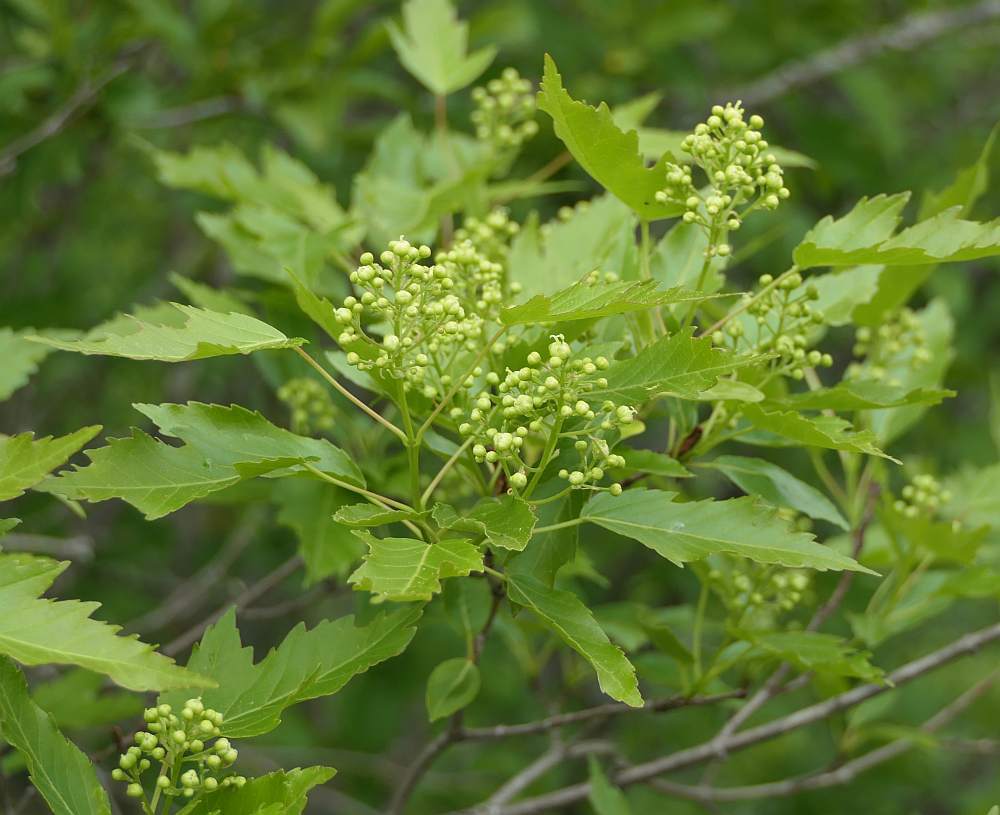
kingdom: Plantae
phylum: Tracheophyta
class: Magnoliopsida
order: Sapindales
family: Sapindaceae
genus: Acer
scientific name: Acer tataricum
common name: Tartar maple
